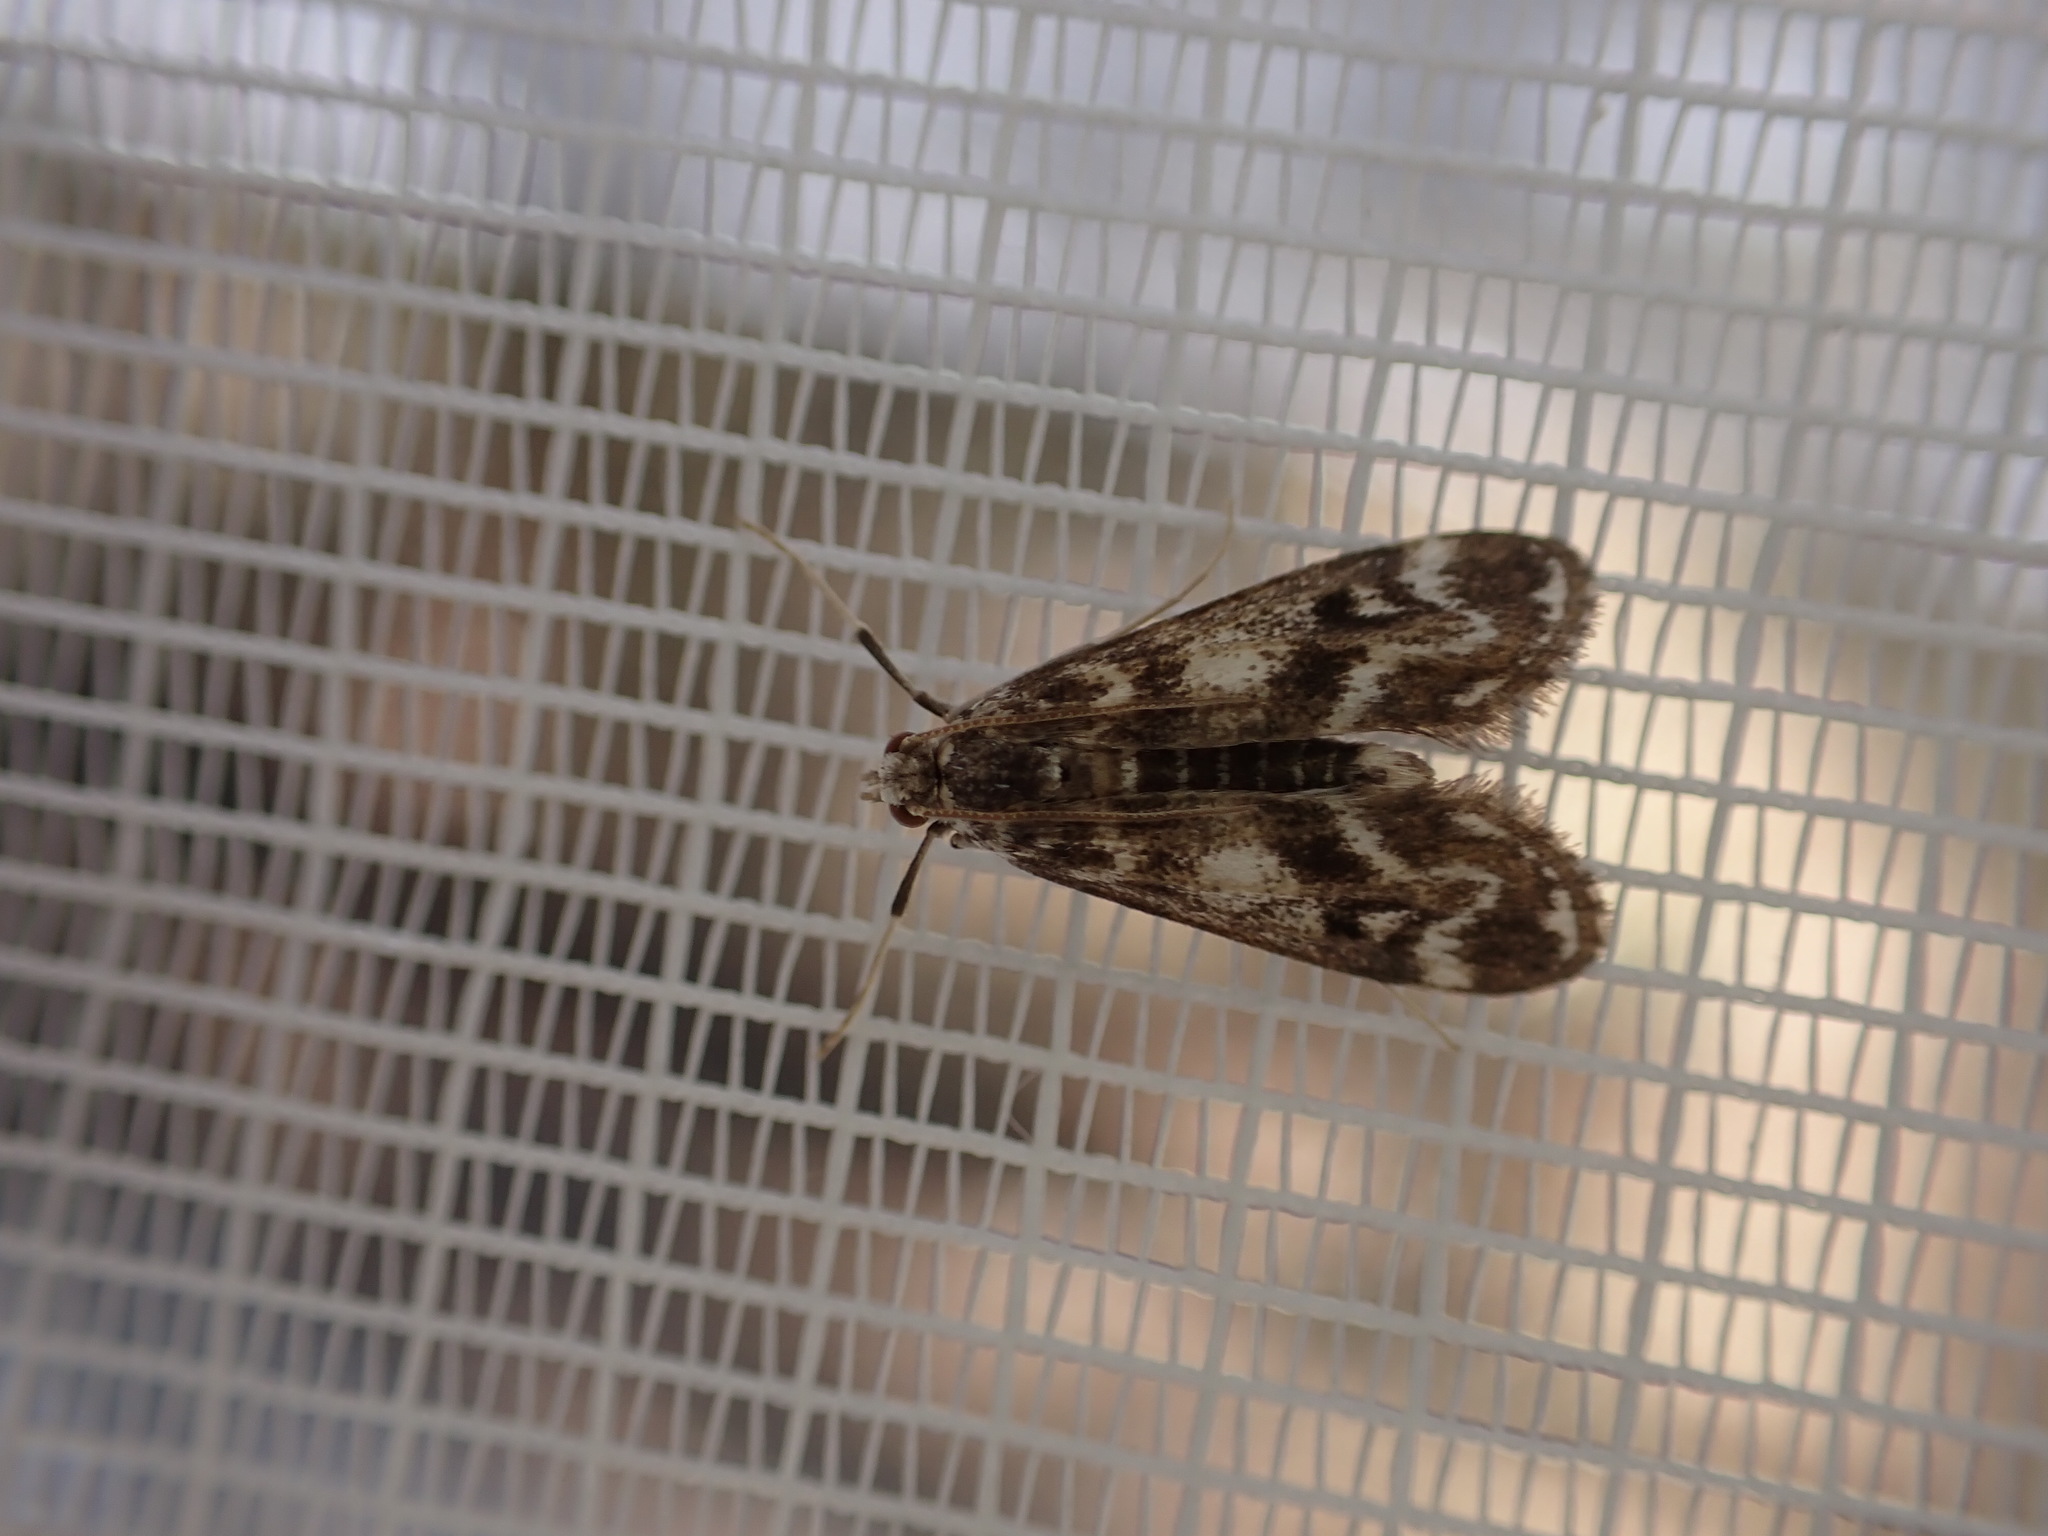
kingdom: Animalia
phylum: Arthropoda
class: Insecta
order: Lepidoptera
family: Crambidae
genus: Hygraula
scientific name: Hygraula nitens
